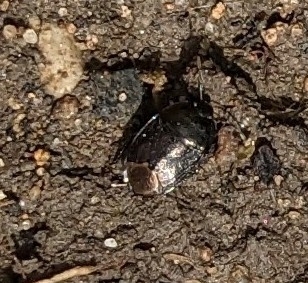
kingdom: Animalia
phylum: Arthropoda
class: Insecta
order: Hemiptera
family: Cydnidae
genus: Sehirus
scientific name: Sehirus luctuosus
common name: Forget-me-not shieldbug
